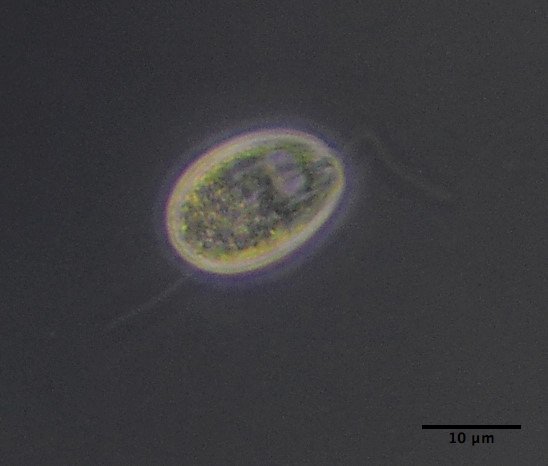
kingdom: Protozoa
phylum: Euglenozoa
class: Entosiphonea
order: Entosiphonida
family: Entosiphonidae
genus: Entosiphon
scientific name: Entosiphon sulcatus
